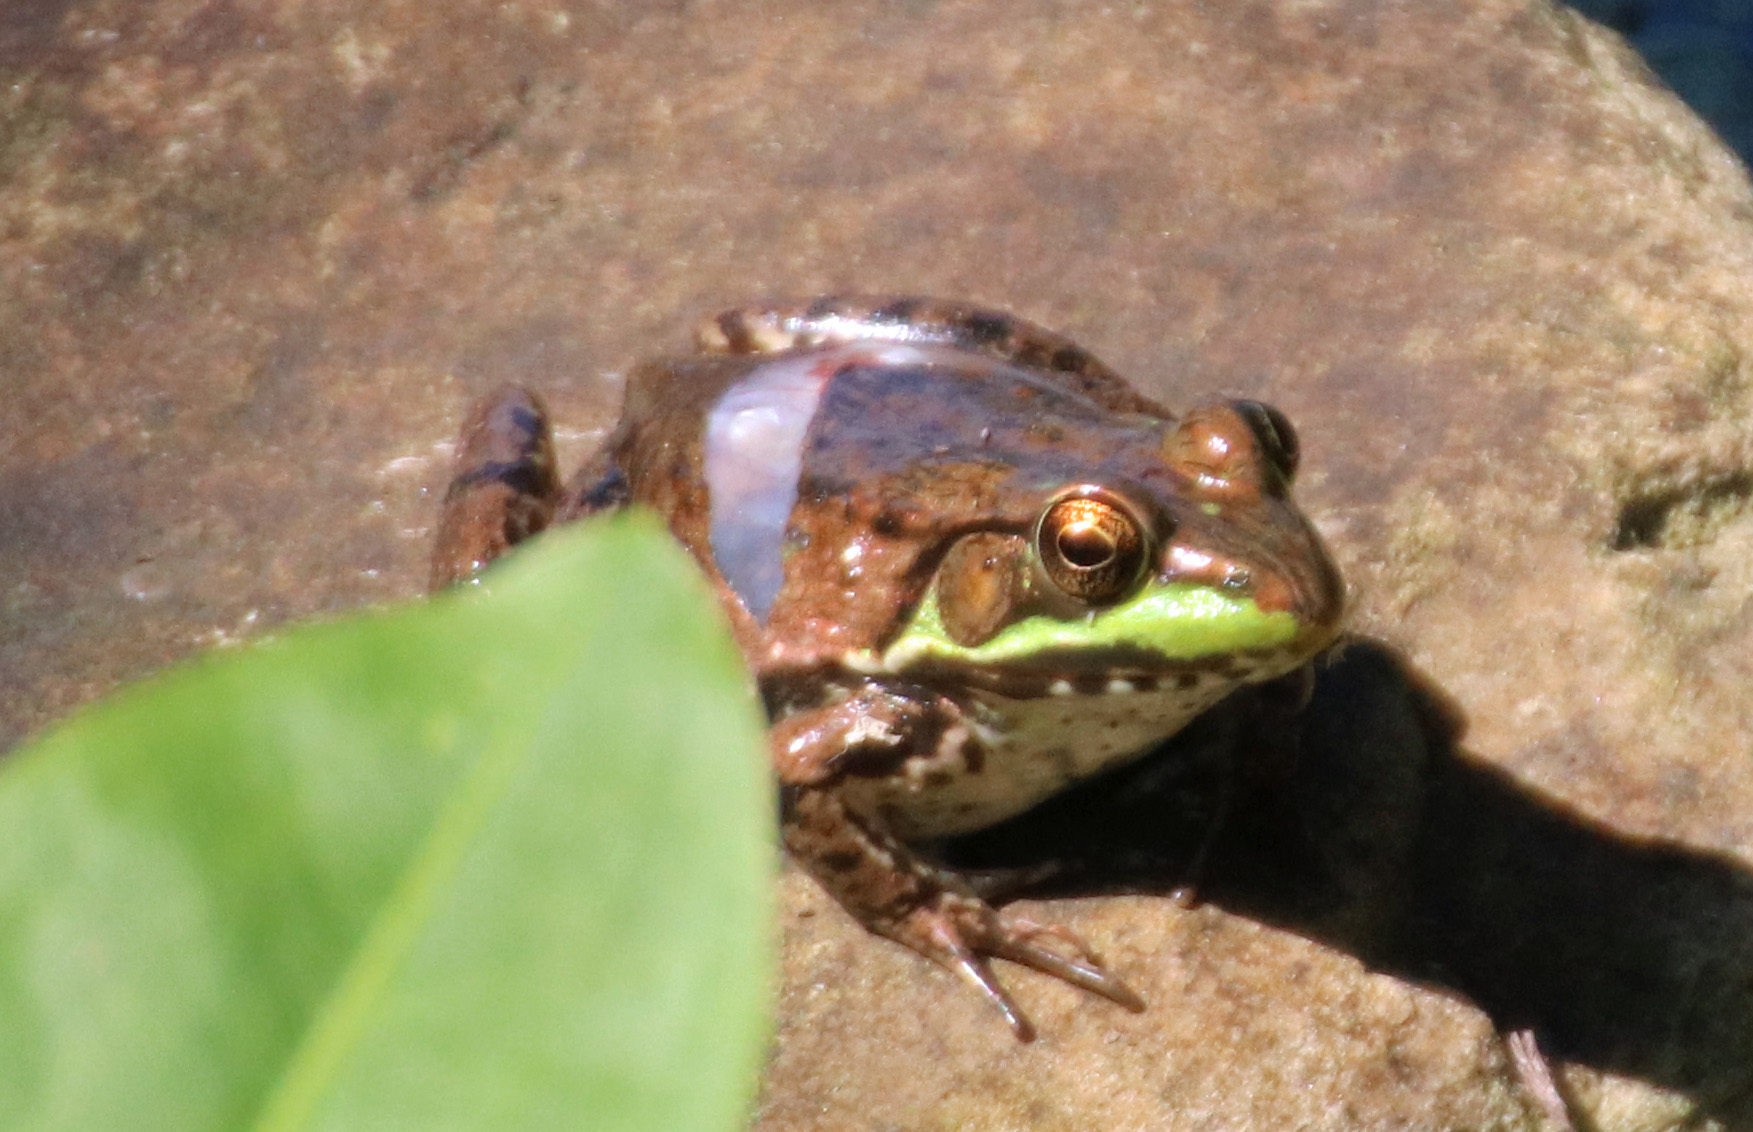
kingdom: Animalia
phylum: Chordata
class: Amphibia
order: Anura
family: Ranidae
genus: Lithobates
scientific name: Lithobates clamitans
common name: Green frog
